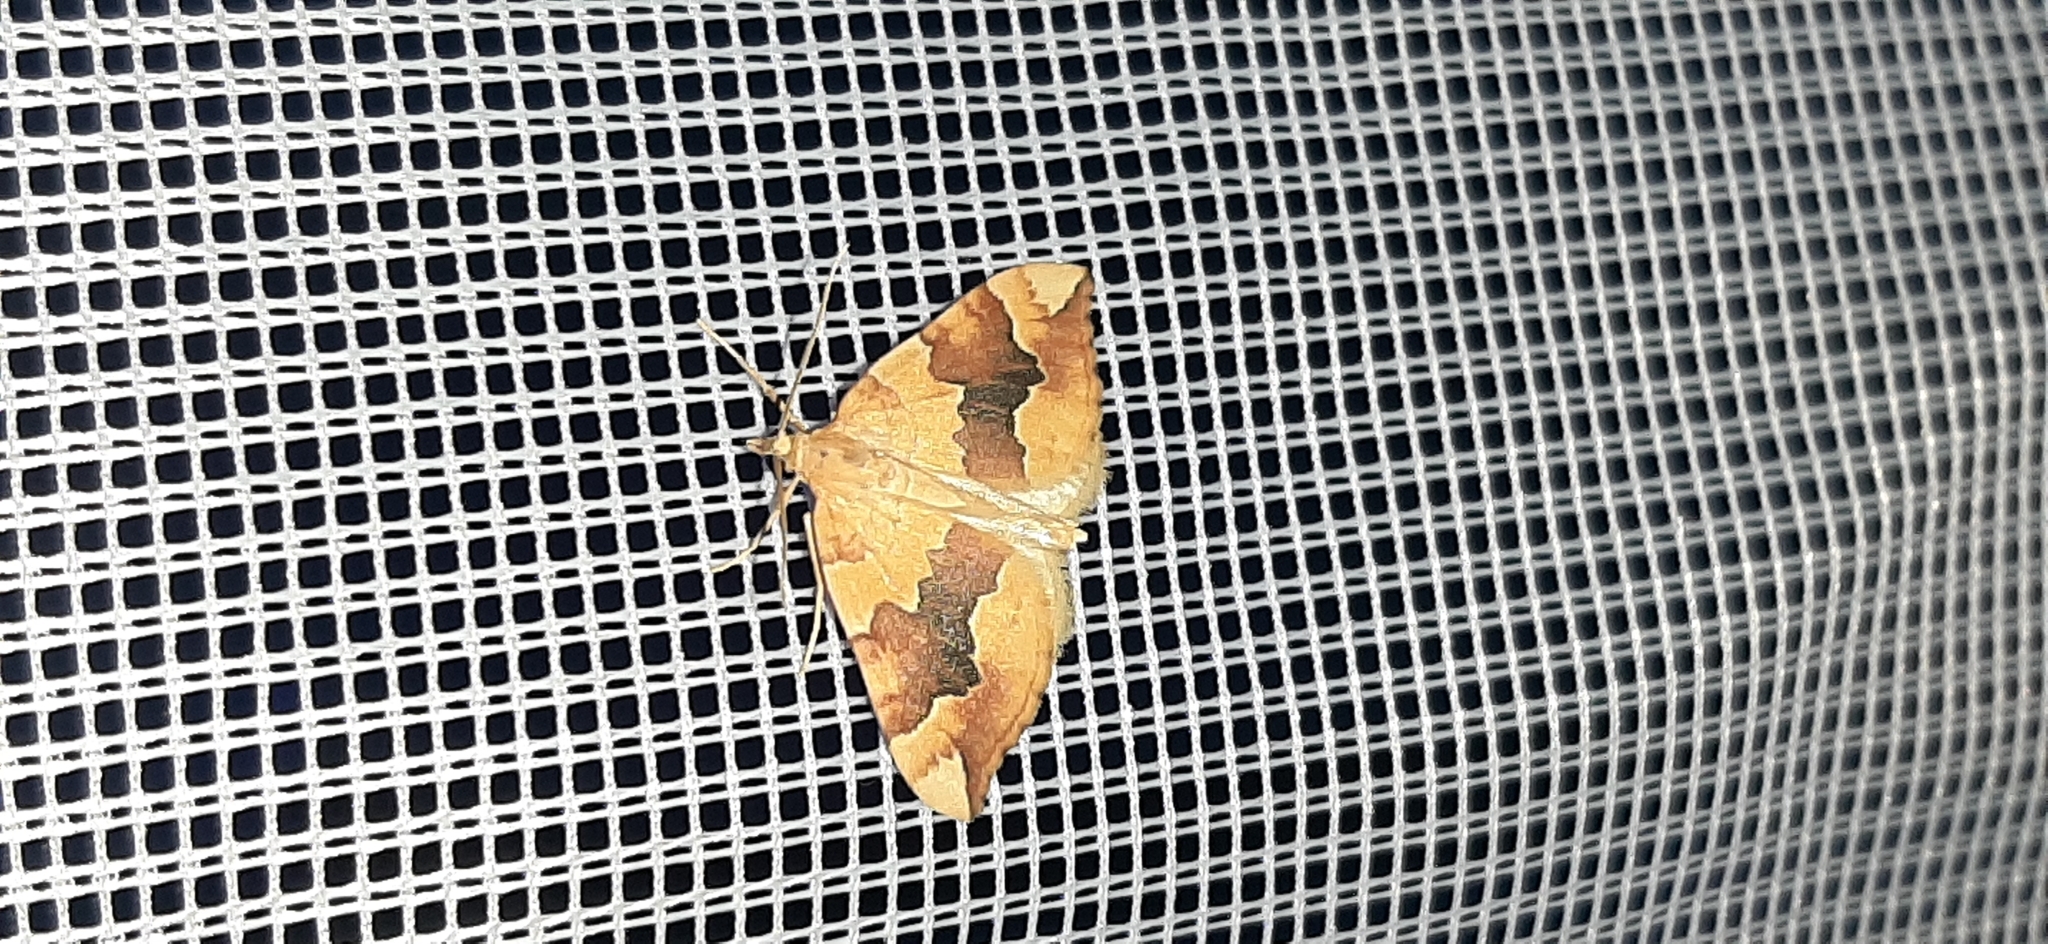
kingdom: Animalia
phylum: Arthropoda
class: Insecta
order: Lepidoptera
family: Geometridae
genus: Cidaria
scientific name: Cidaria fulvata
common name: Barred yellow
